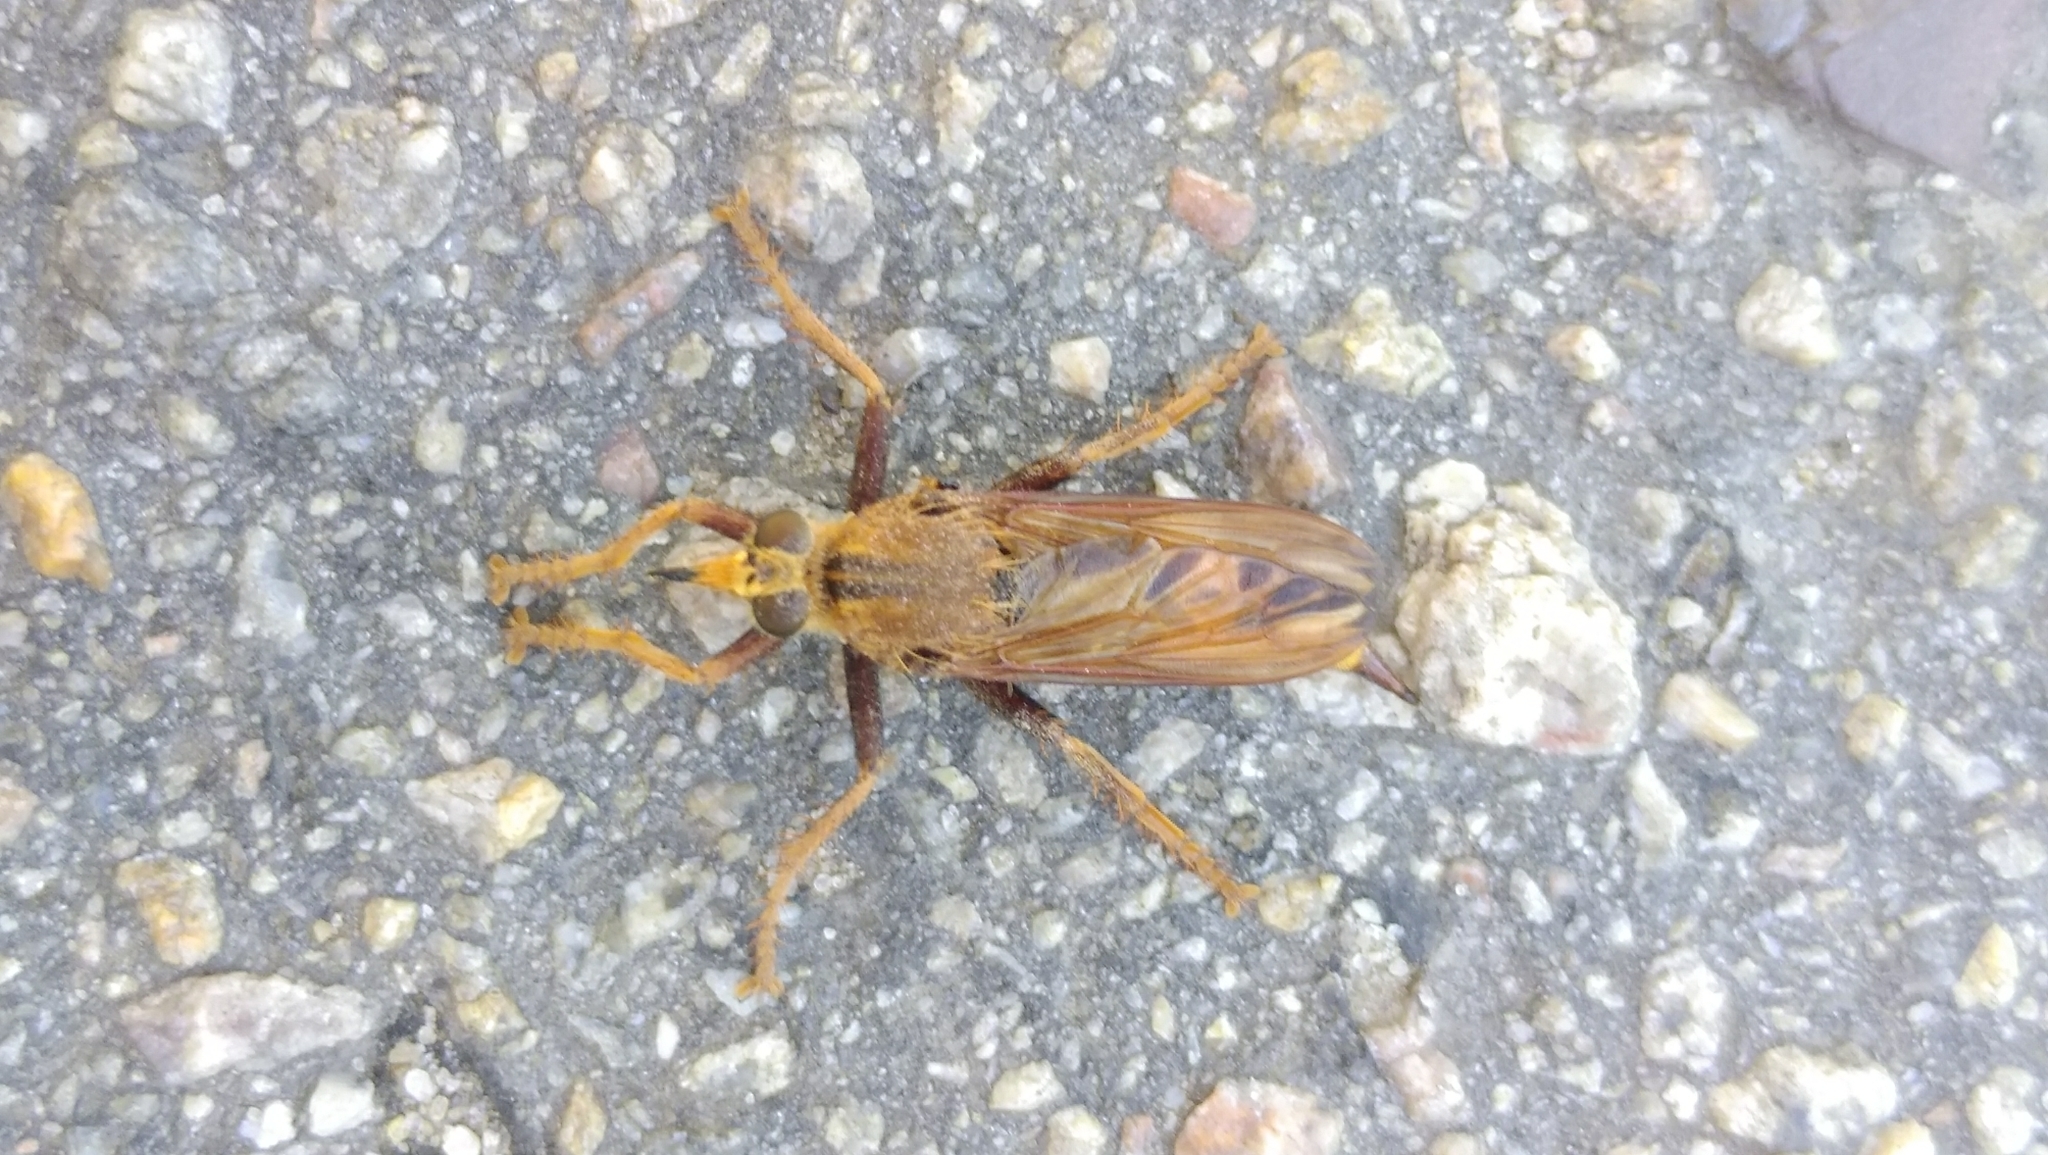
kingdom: Animalia
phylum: Arthropoda
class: Insecta
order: Diptera
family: Asilidae
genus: Asilus
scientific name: Asilus crabroniformis
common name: Hornet robberfly
